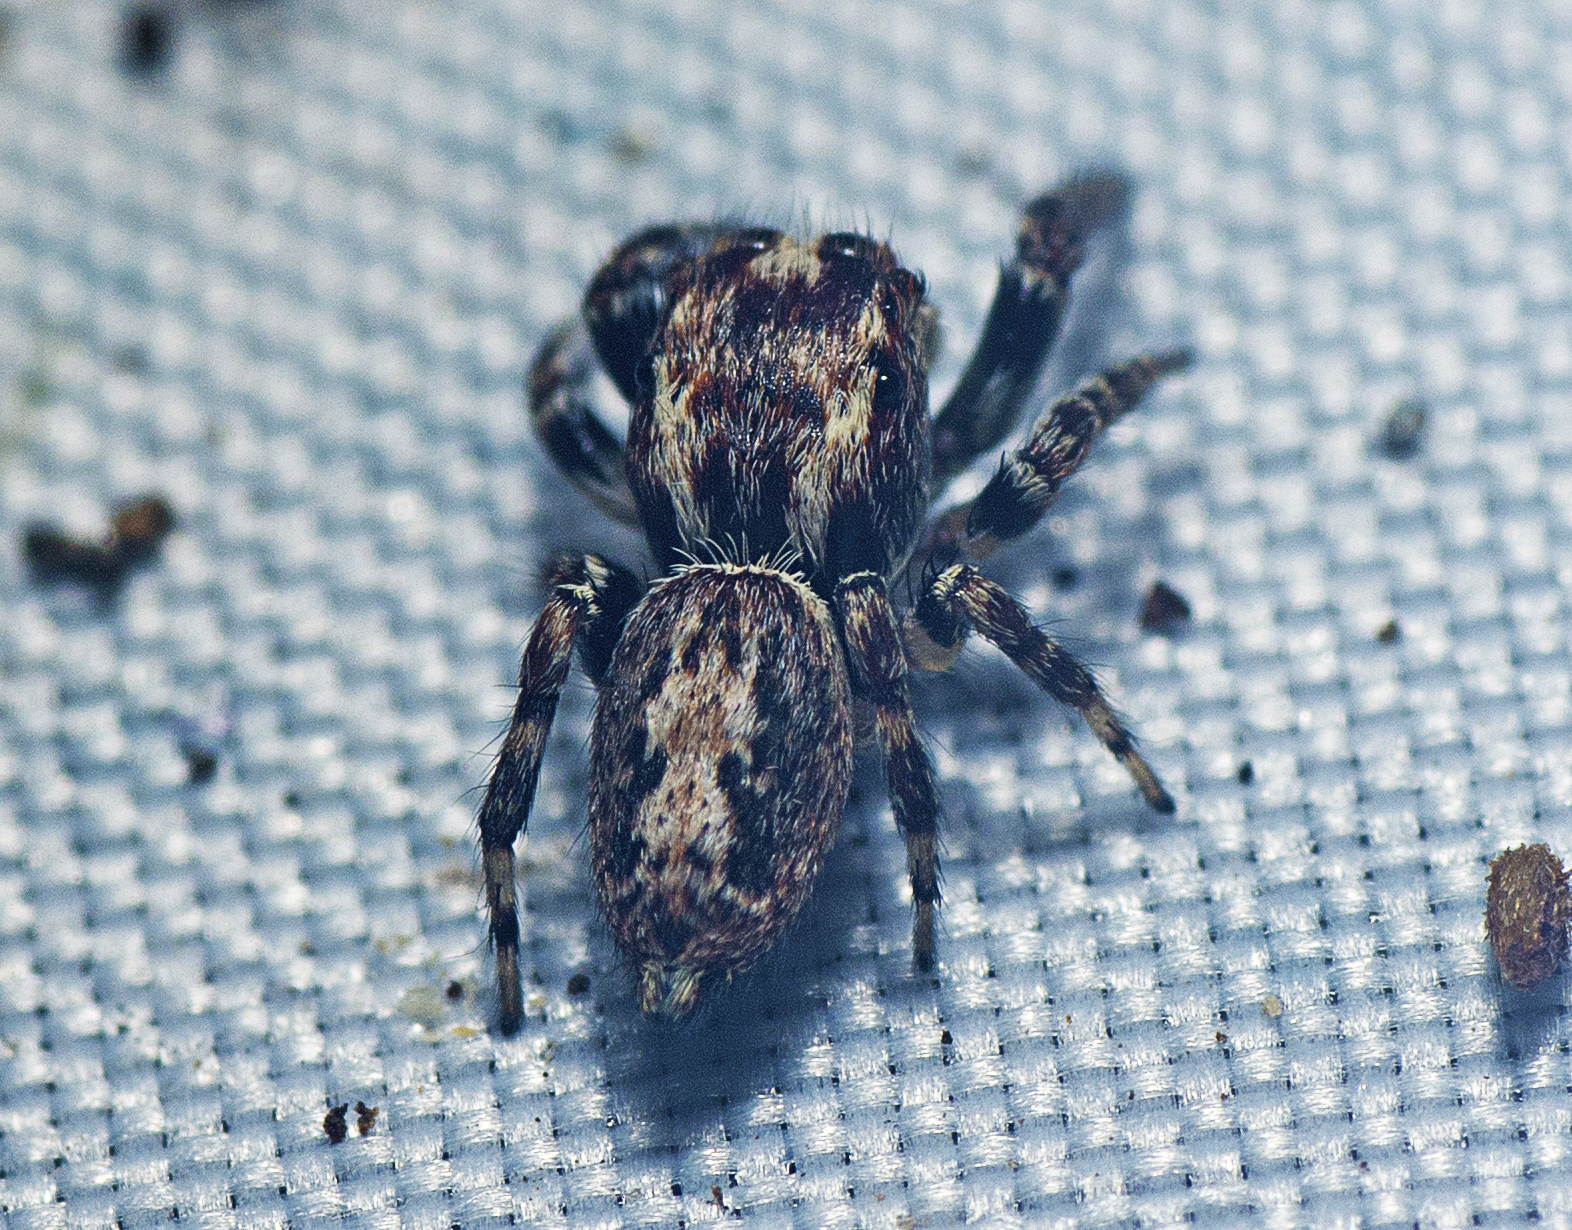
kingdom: Animalia
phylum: Arthropoda
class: Arachnida
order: Araneae
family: Salticidae
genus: Paraphilaeus
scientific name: Paraphilaeus daemeli
